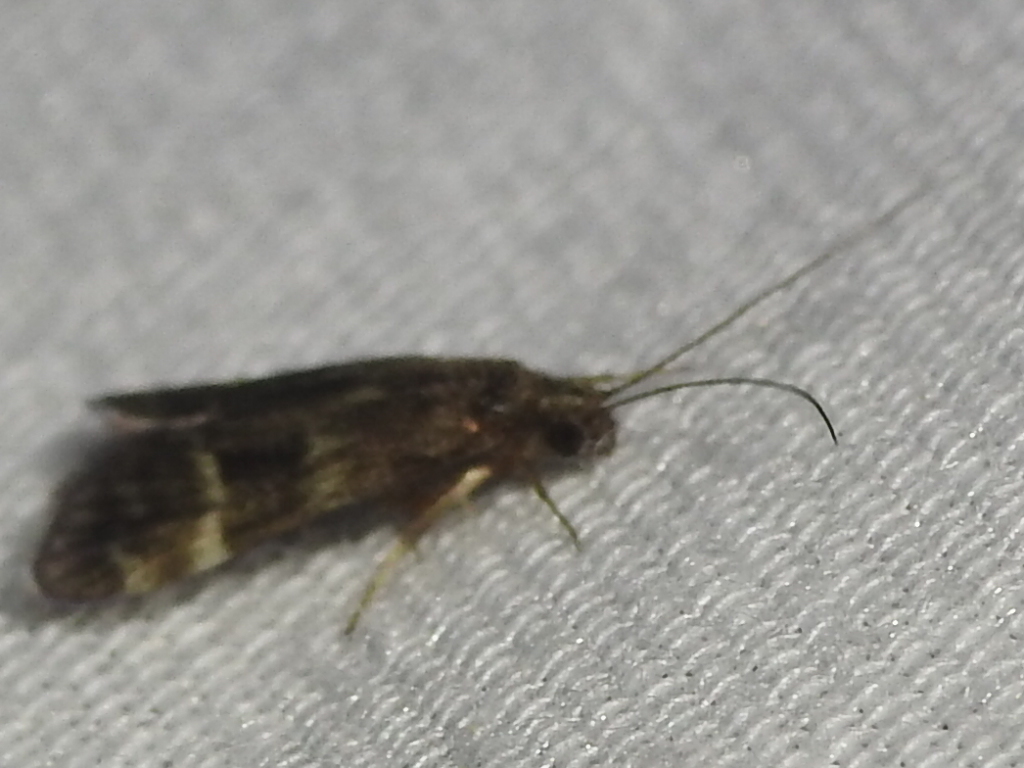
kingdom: Animalia
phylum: Arthropoda
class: Insecta
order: Trichoptera
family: Hydropsychidae
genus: Smicridea
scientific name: Smicridea fasciatella
